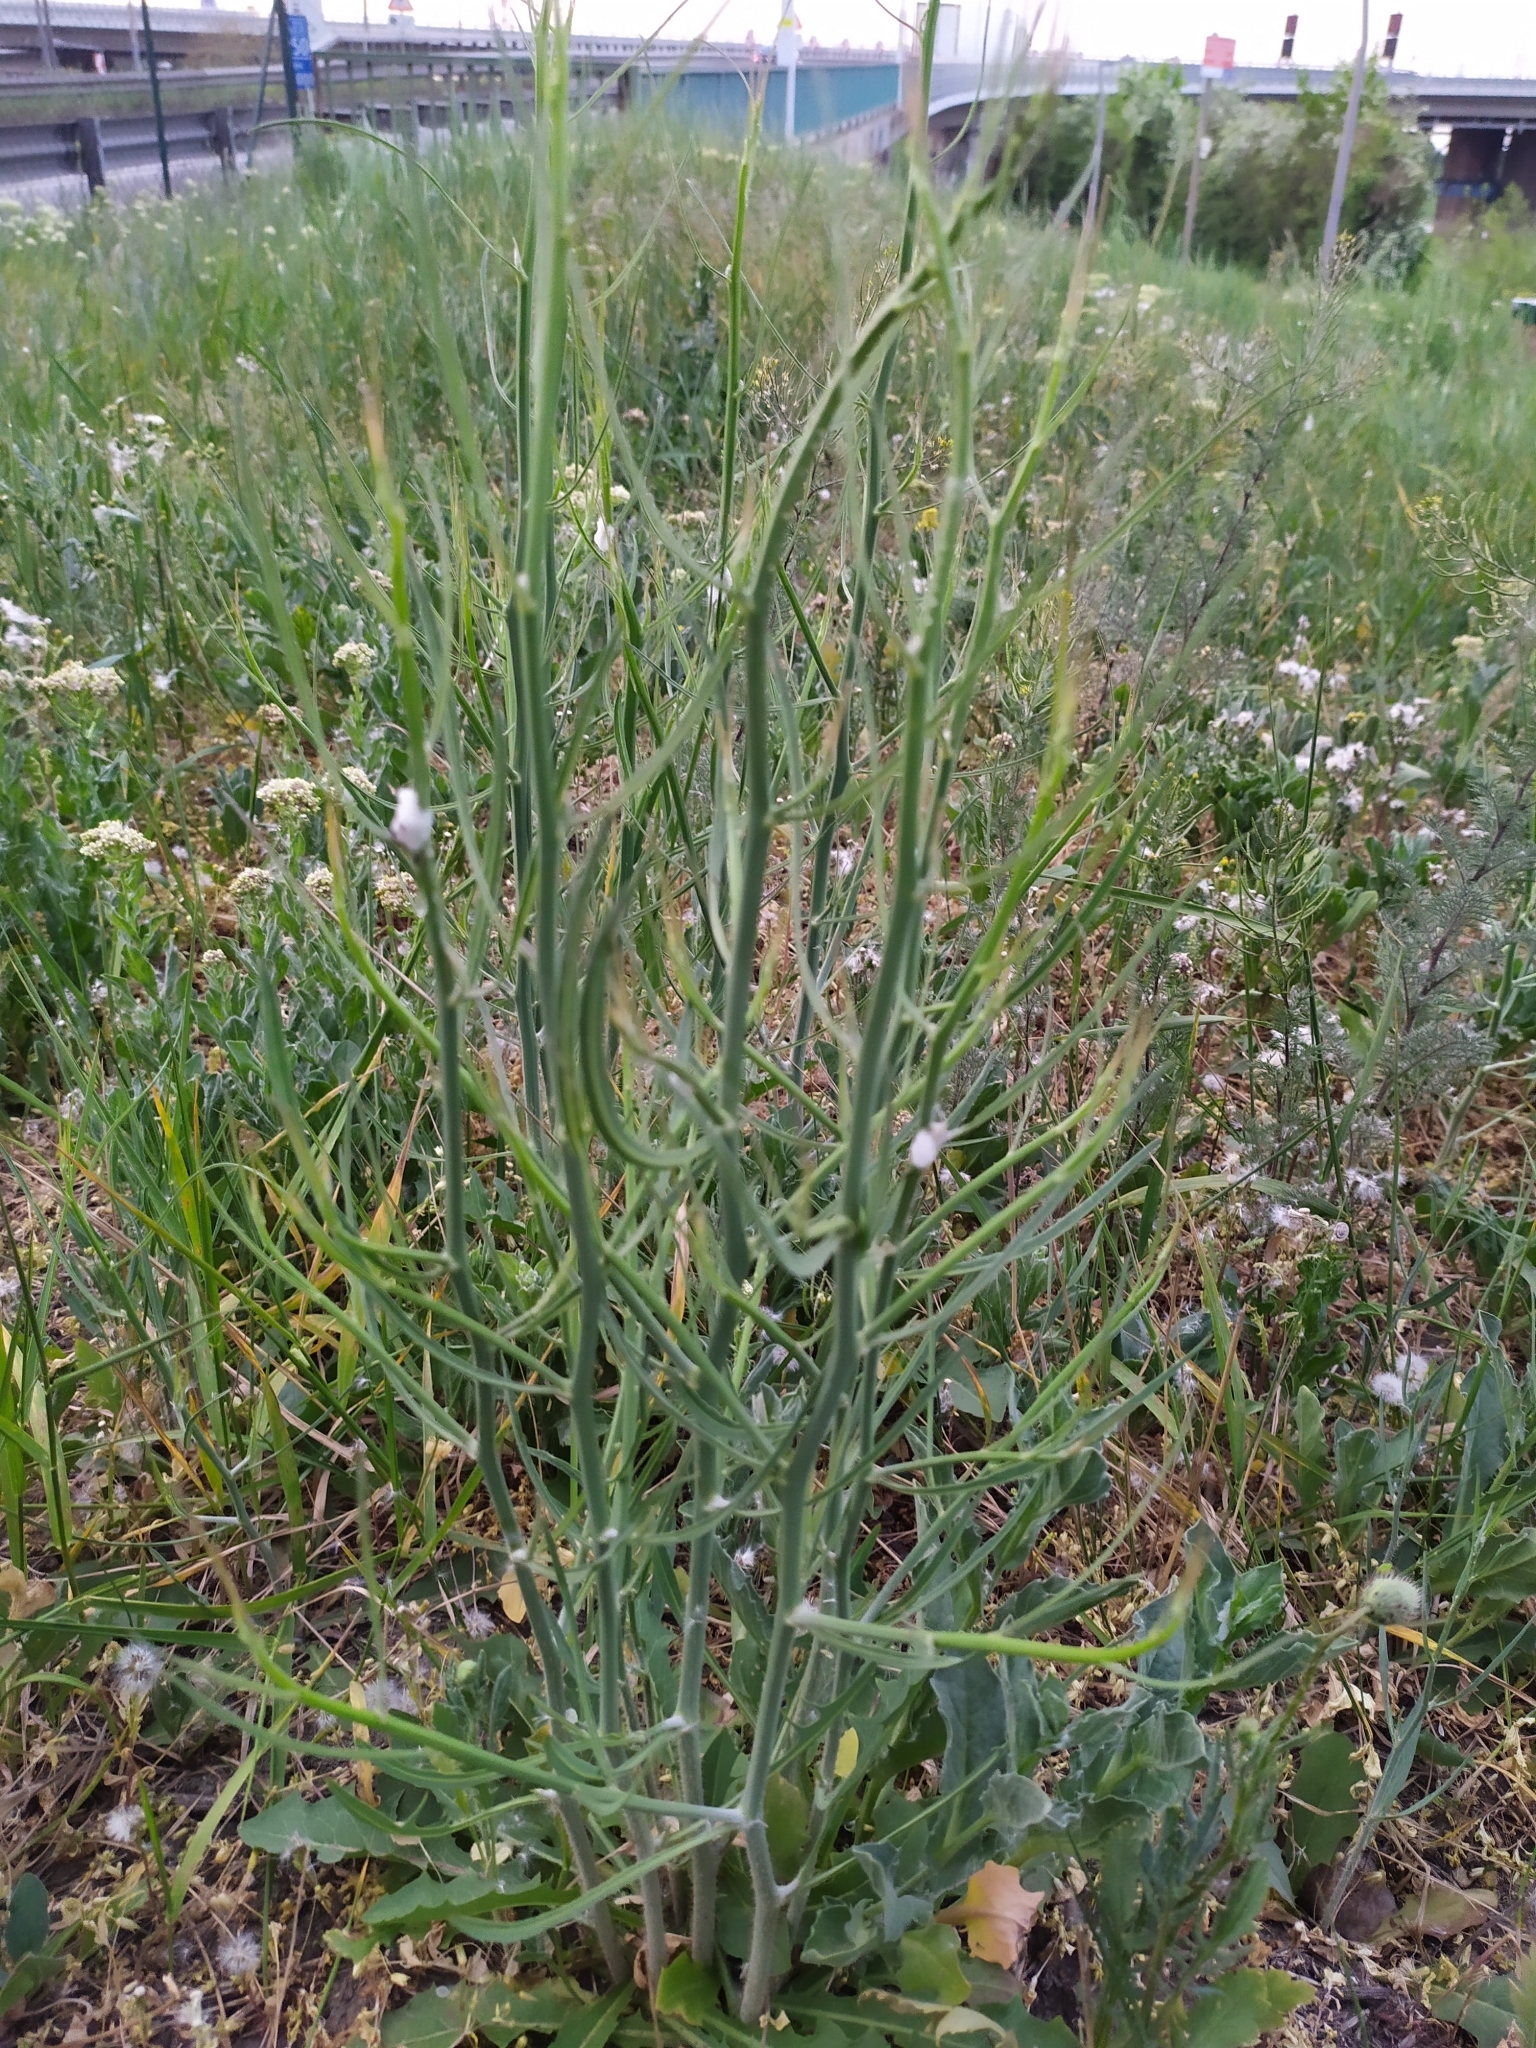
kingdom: Plantae
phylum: Tracheophyta
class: Magnoliopsida
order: Asterales
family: Asteraceae
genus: Chondrilla
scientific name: Chondrilla juncea
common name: Skeleton weed
